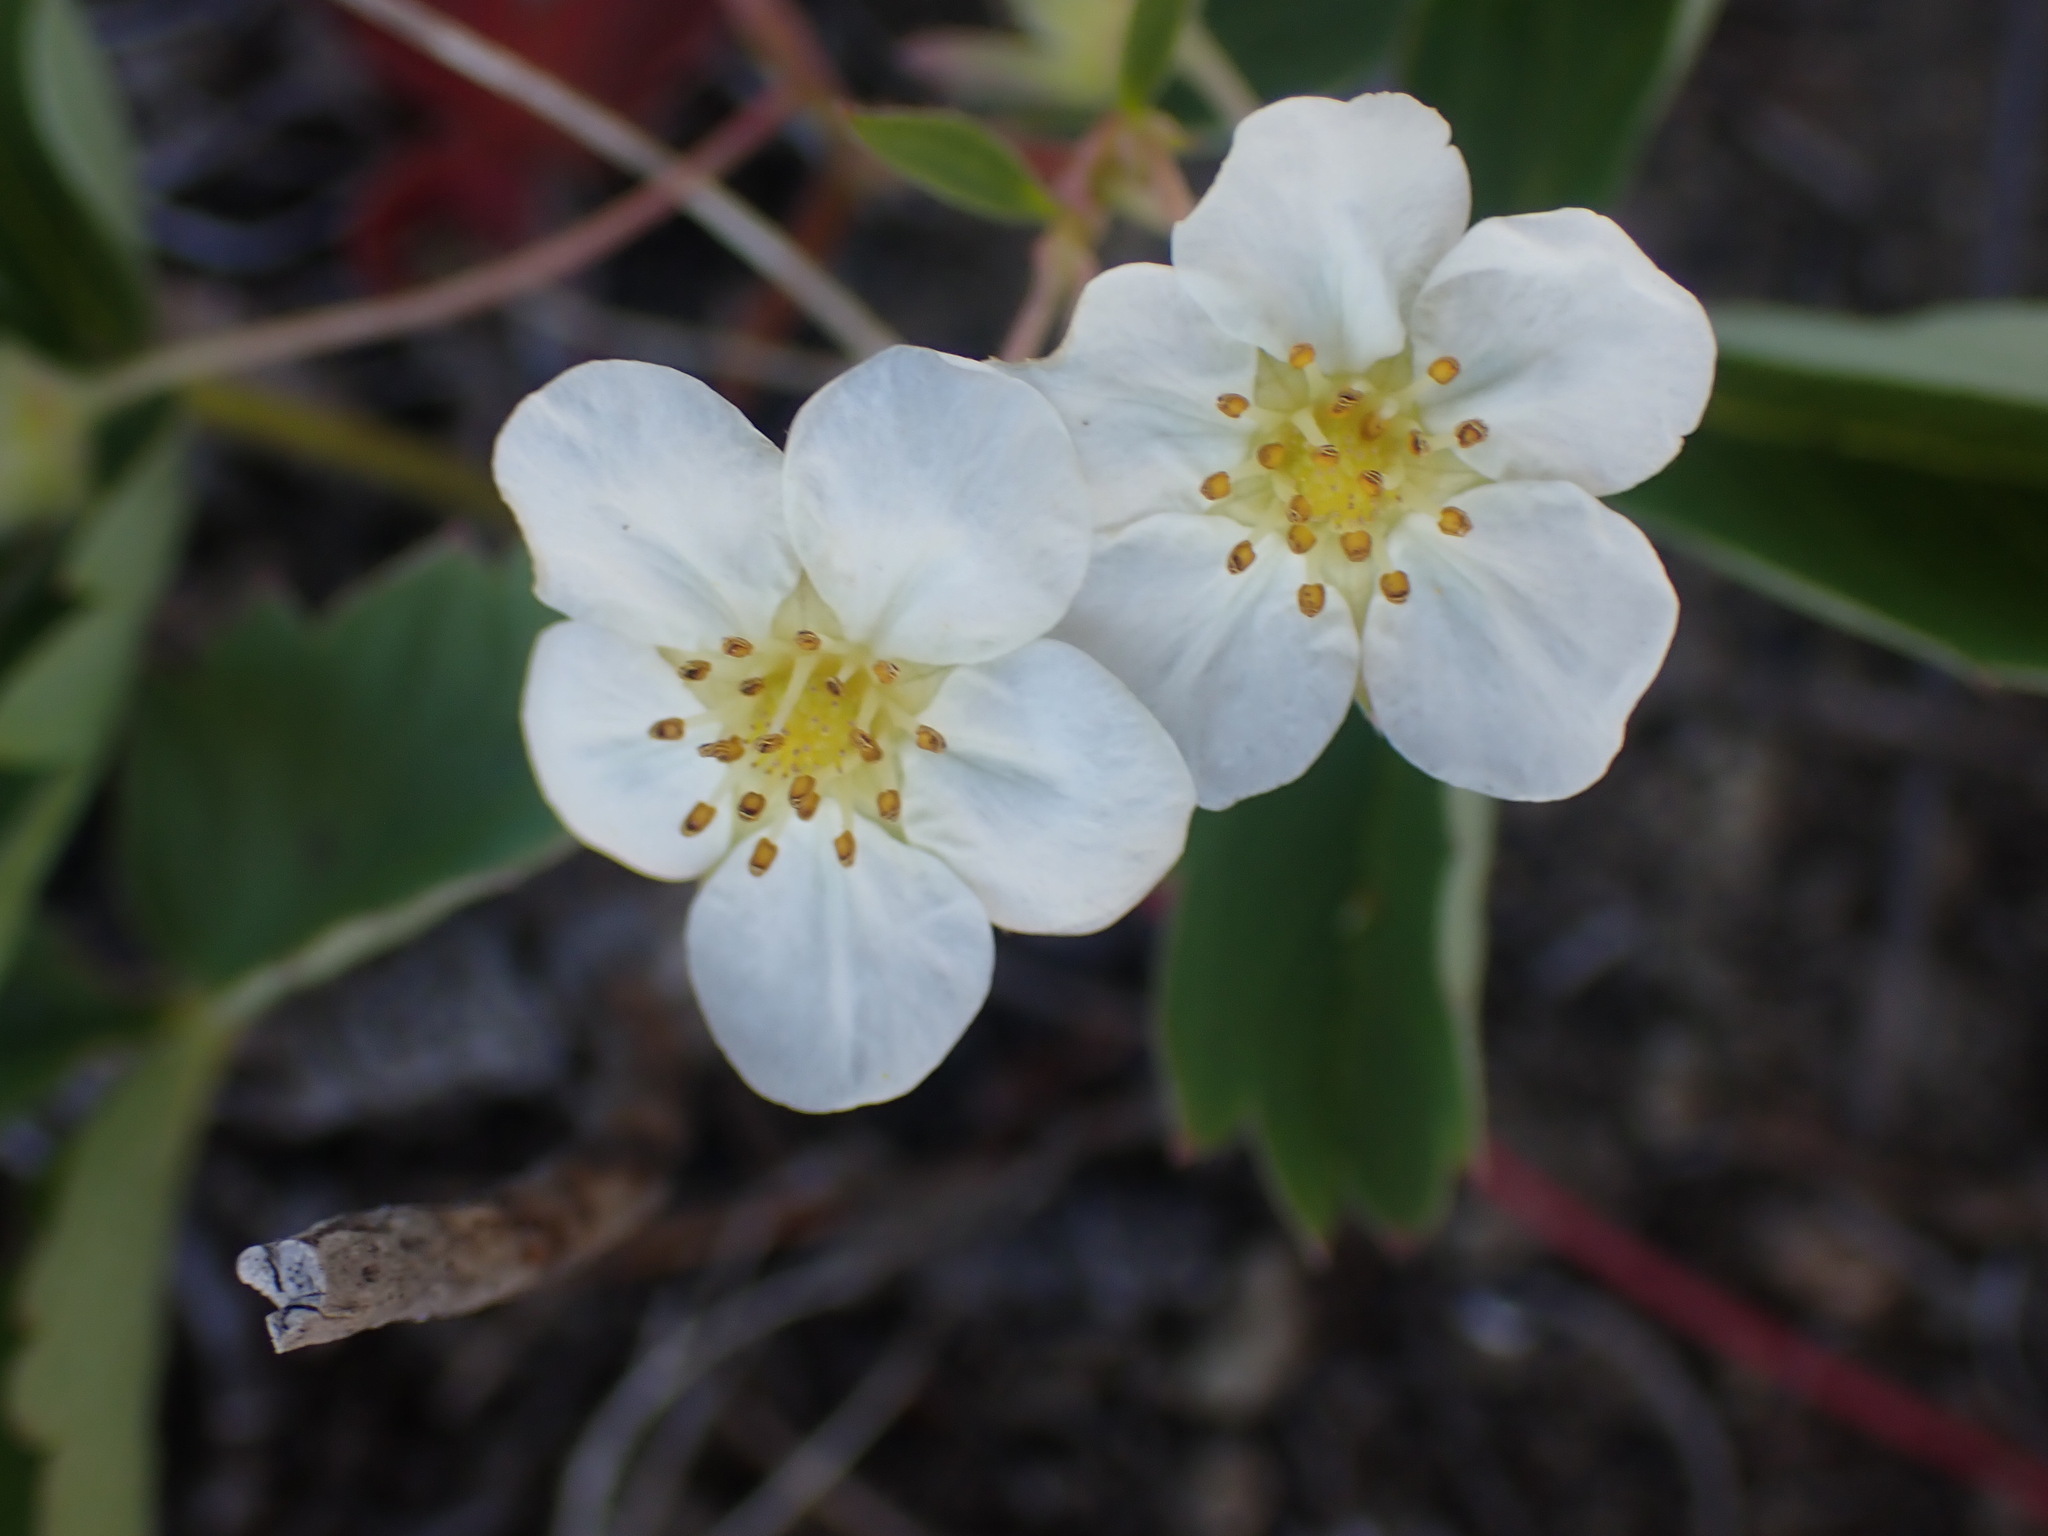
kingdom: Plantae
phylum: Tracheophyta
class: Magnoliopsida
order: Rosales
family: Rosaceae
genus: Fragaria
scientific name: Fragaria virginiana
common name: Thickleaved wild strawberry
